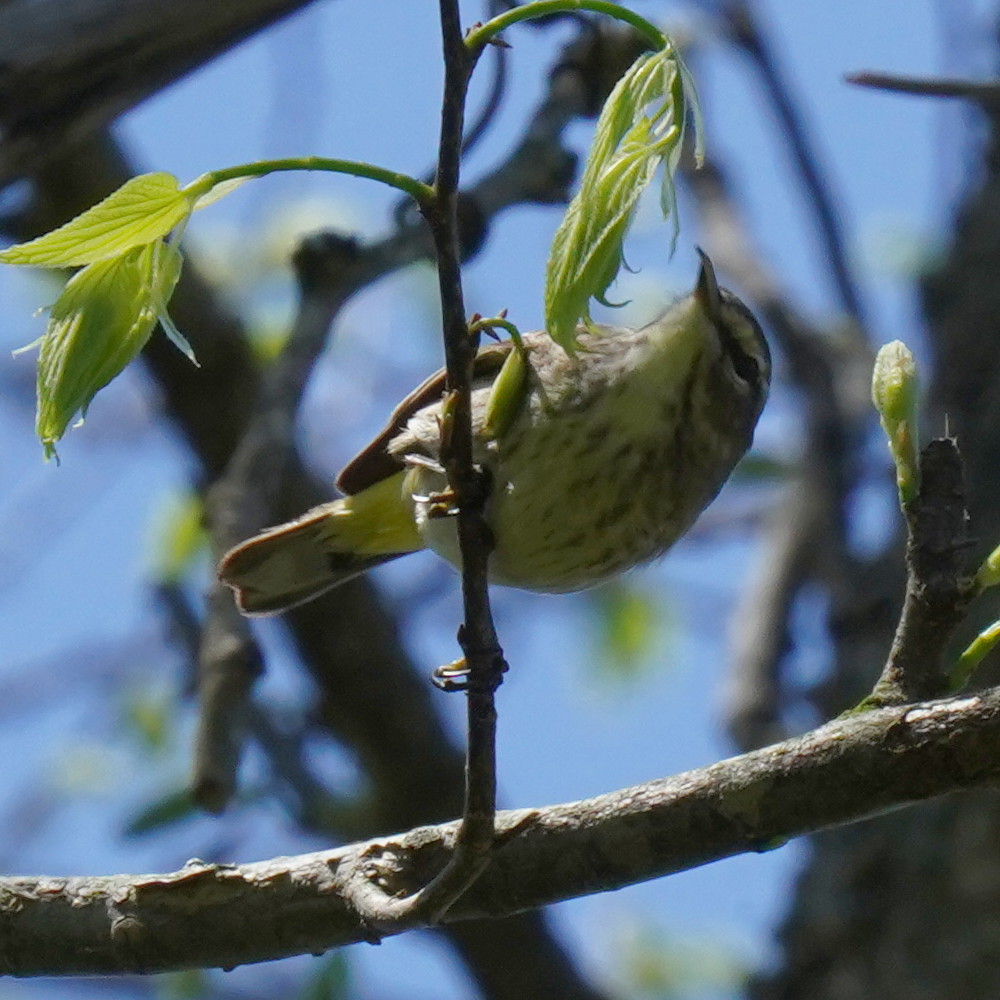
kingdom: Animalia
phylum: Chordata
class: Aves
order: Passeriformes
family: Parulidae
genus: Setophaga
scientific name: Setophaga palmarum
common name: Palm warbler
